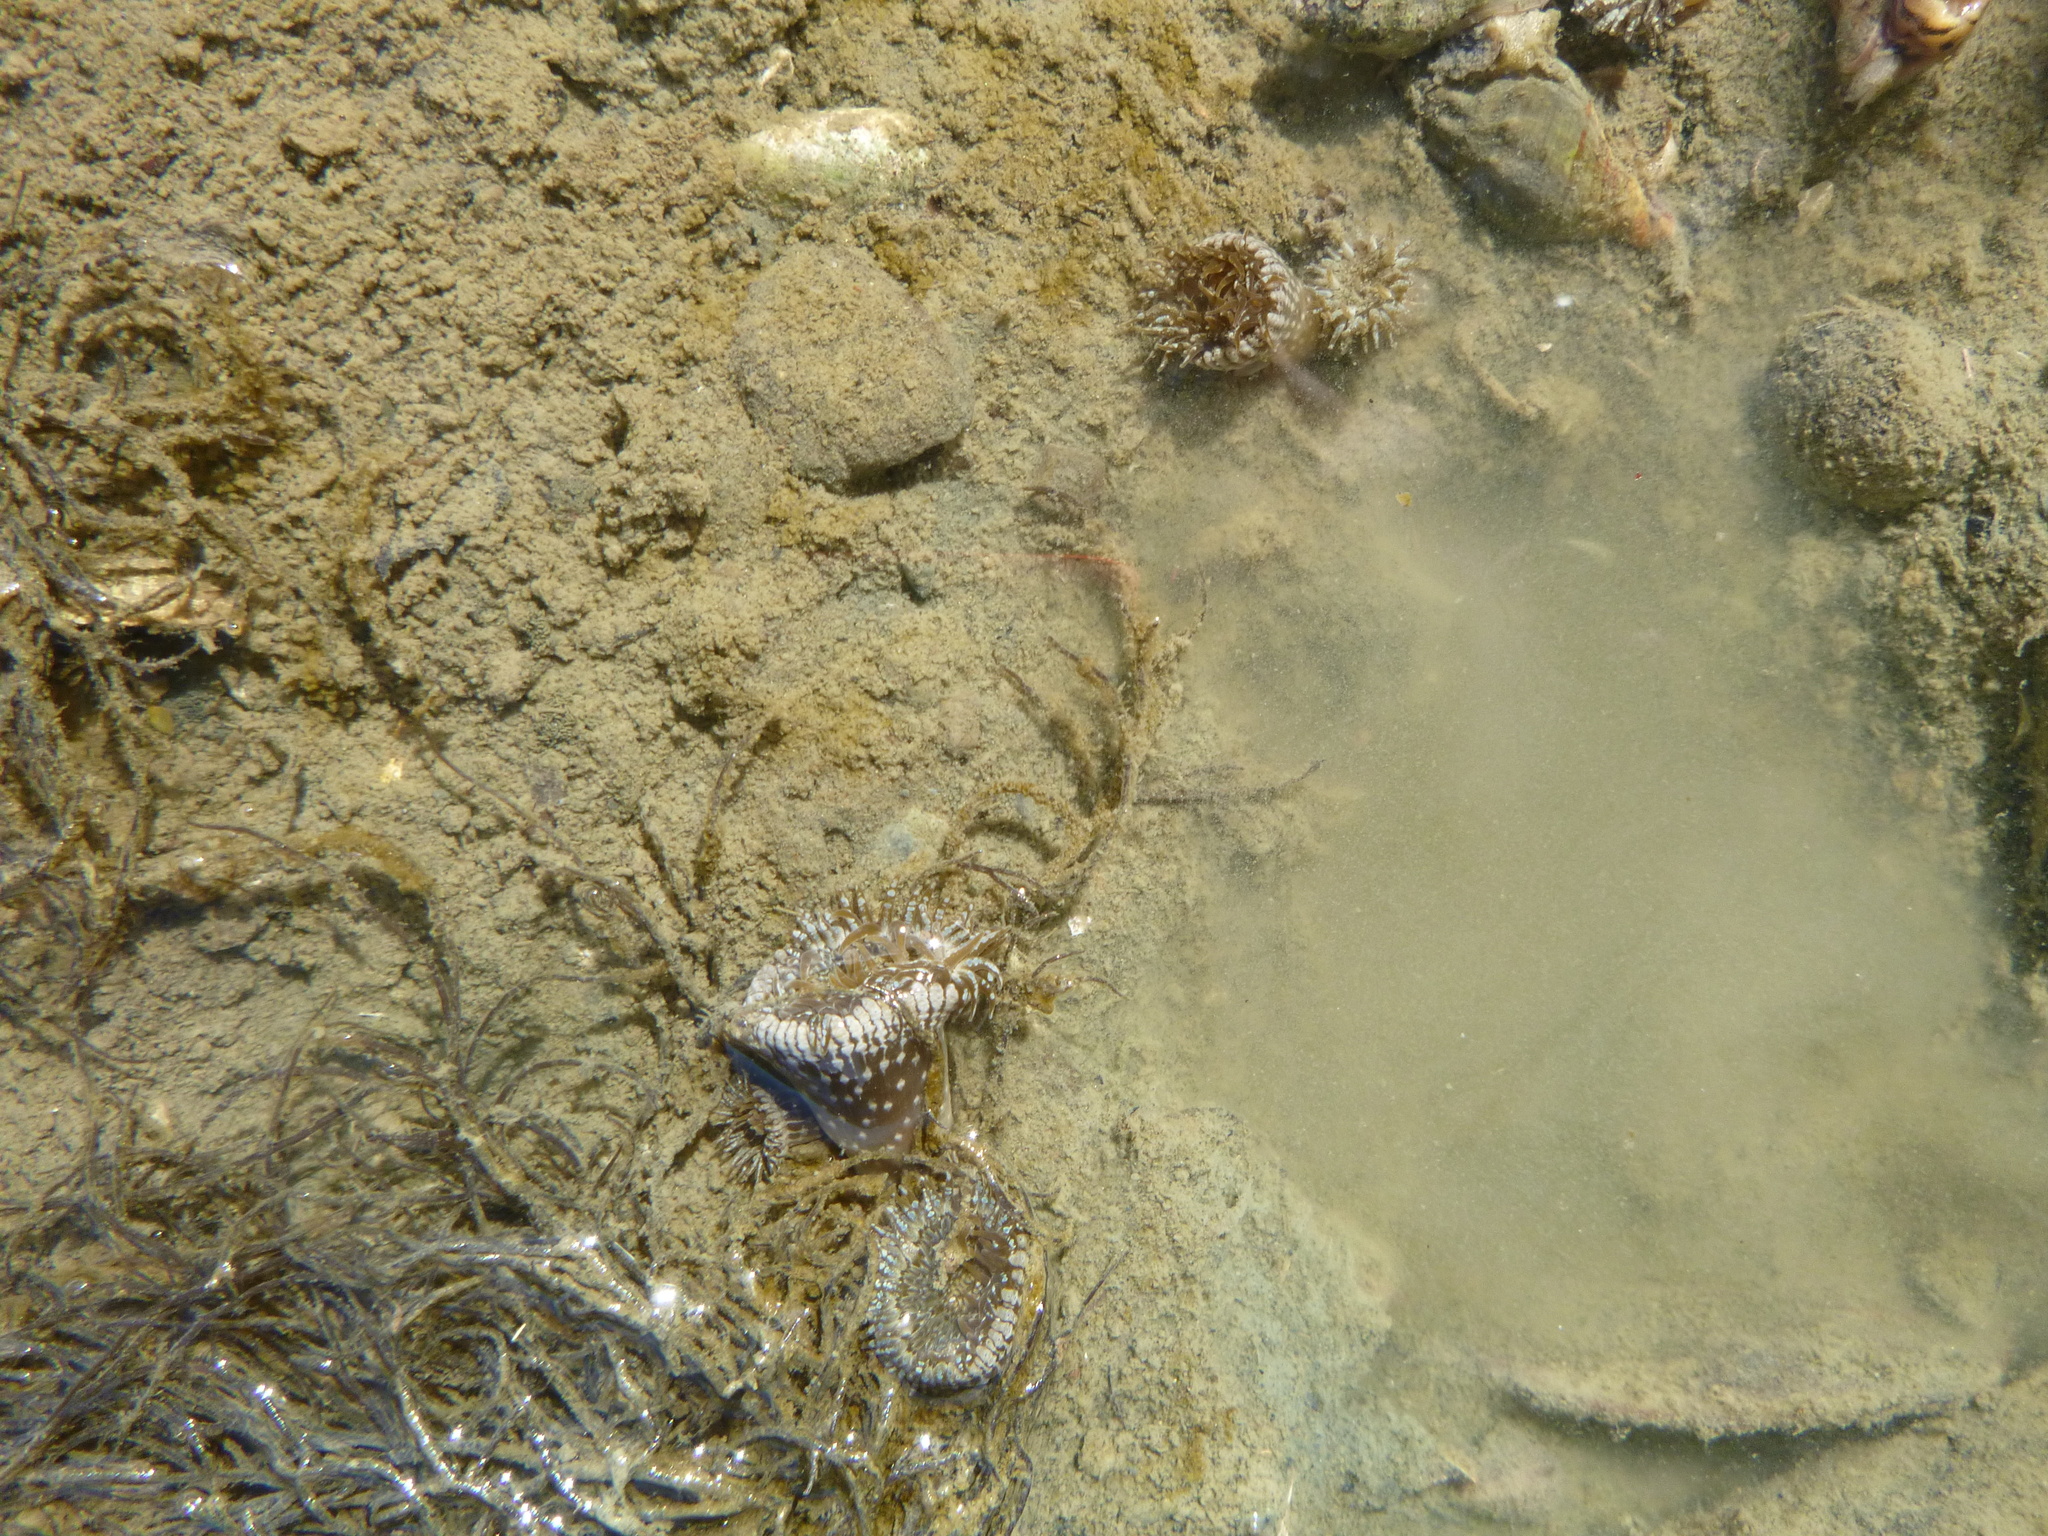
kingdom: Animalia
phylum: Cnidaria
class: Anthozoa
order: Actiniaria
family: Actiniidae
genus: Anthopleura
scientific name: Anthopleura hermaphroditica
